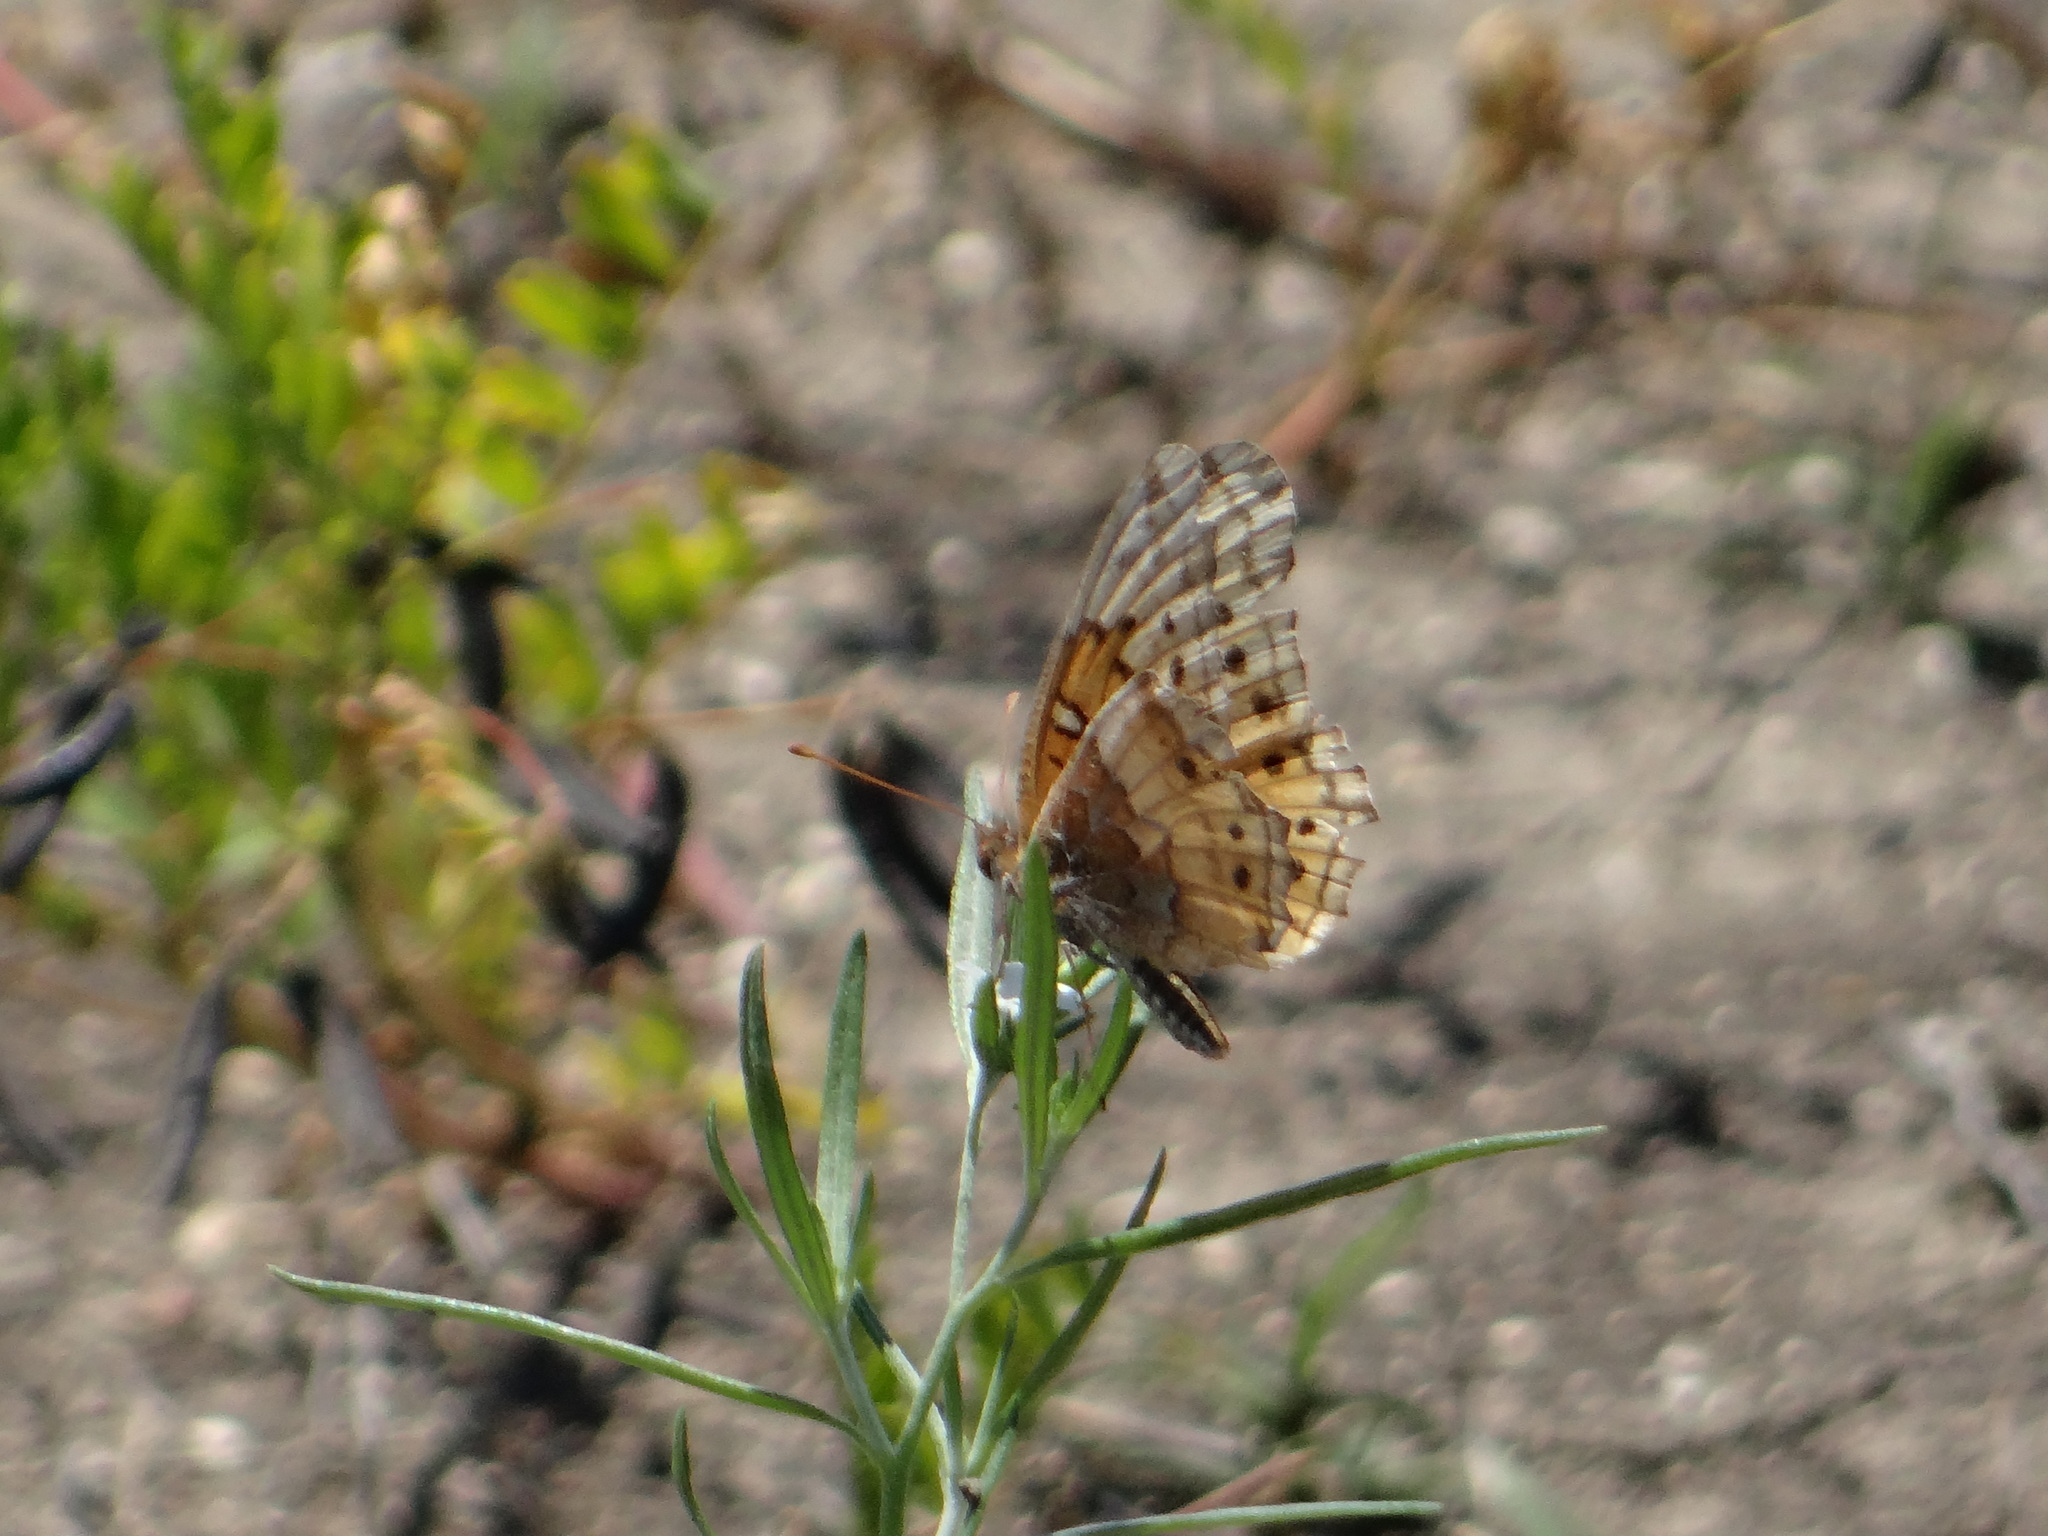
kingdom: Animalia
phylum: Arthropoda
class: Insecta
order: Lepidoptera
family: Nymphalidae
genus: Euptoieta
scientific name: Euptoieta claudia
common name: Variegated fritillary
